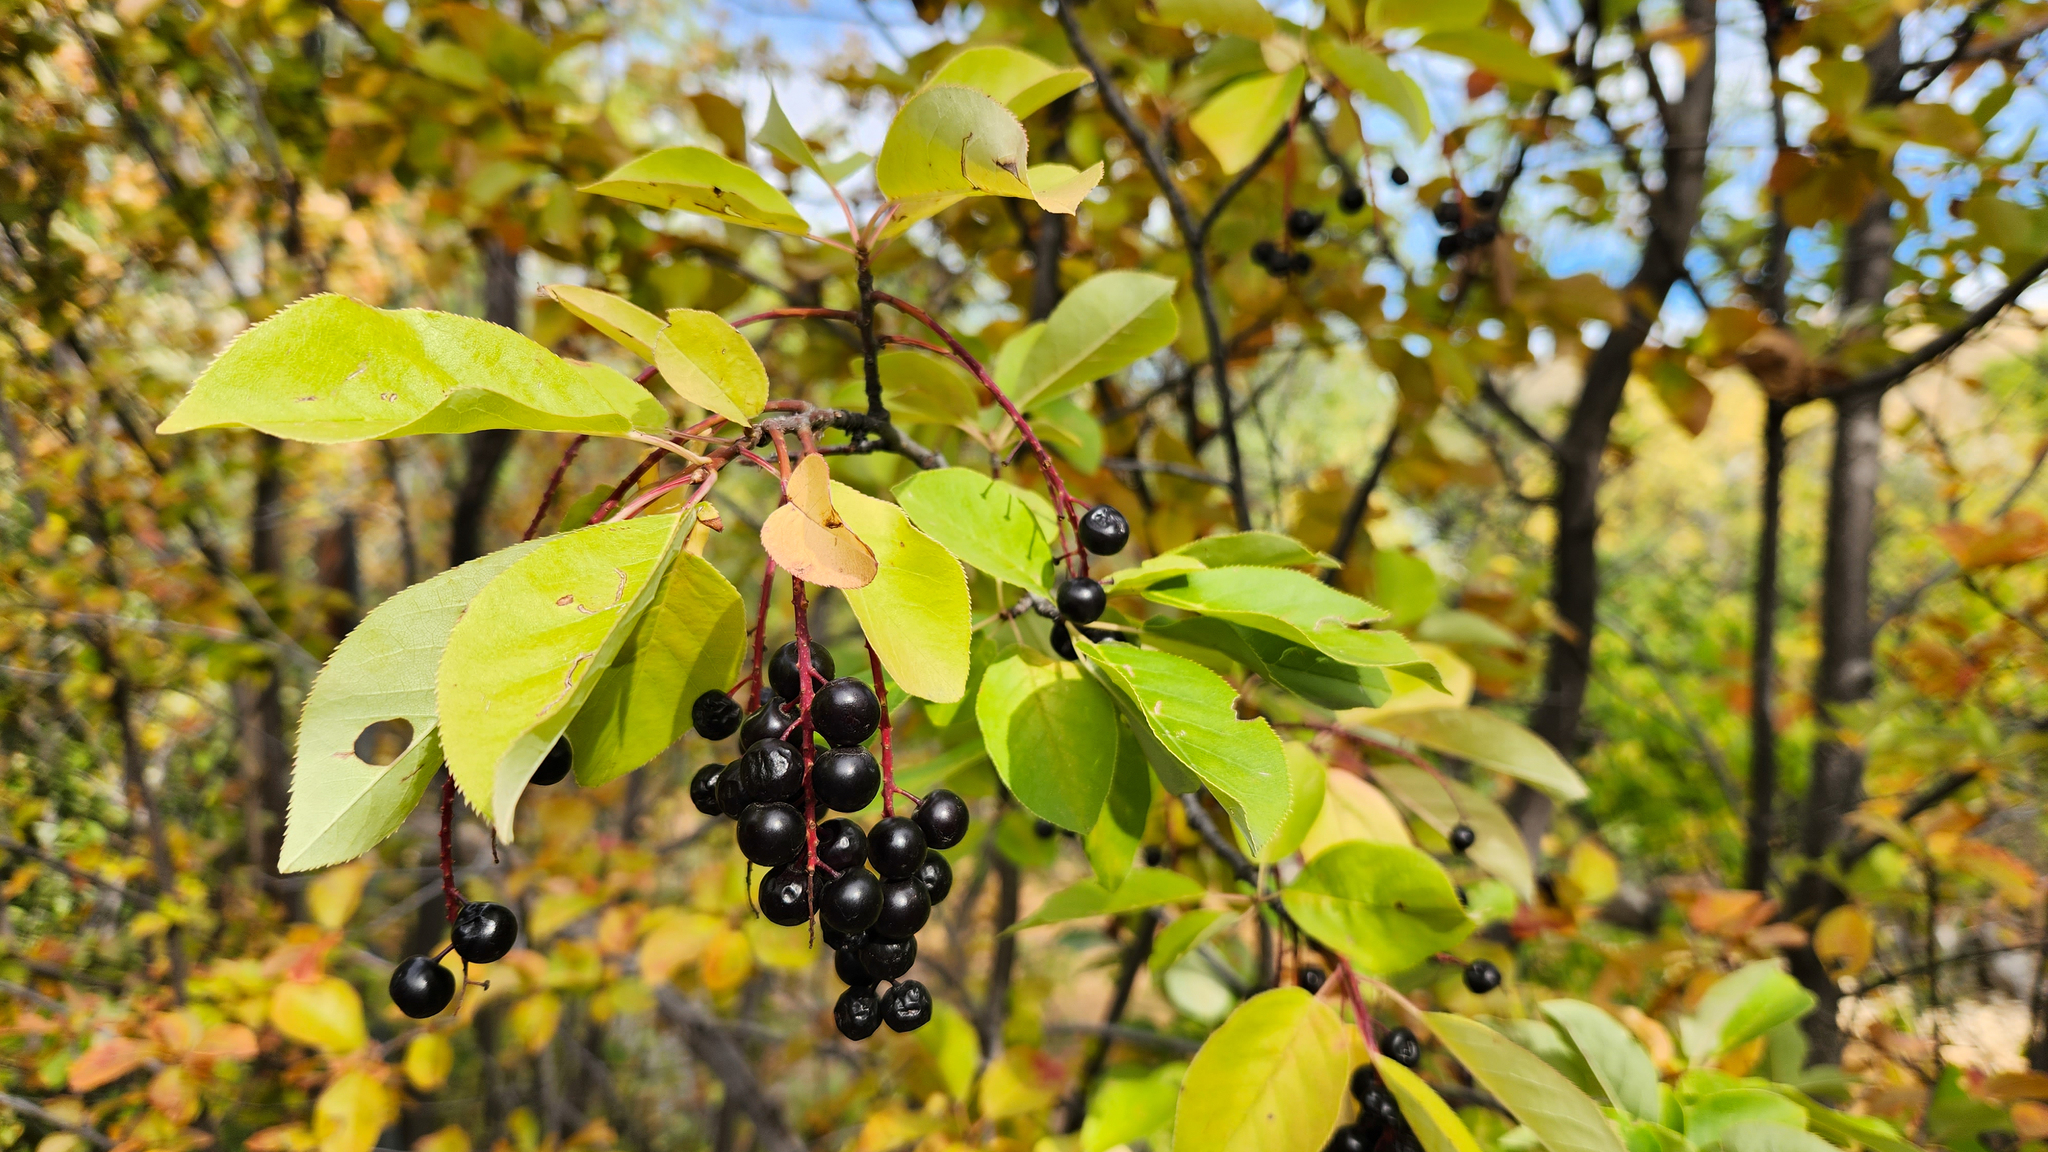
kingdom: Plantae
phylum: Tracheophyta
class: Magnoliopsida
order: Rosales
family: Rosaceae
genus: Prunus
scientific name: Prunus virginiana
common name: Chokecherry
